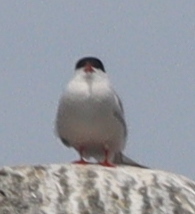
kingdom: Animalia
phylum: Chordata
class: Aves
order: Charadriiformes
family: Laridae
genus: Sterna
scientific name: Sterna hirundo
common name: Common tern
